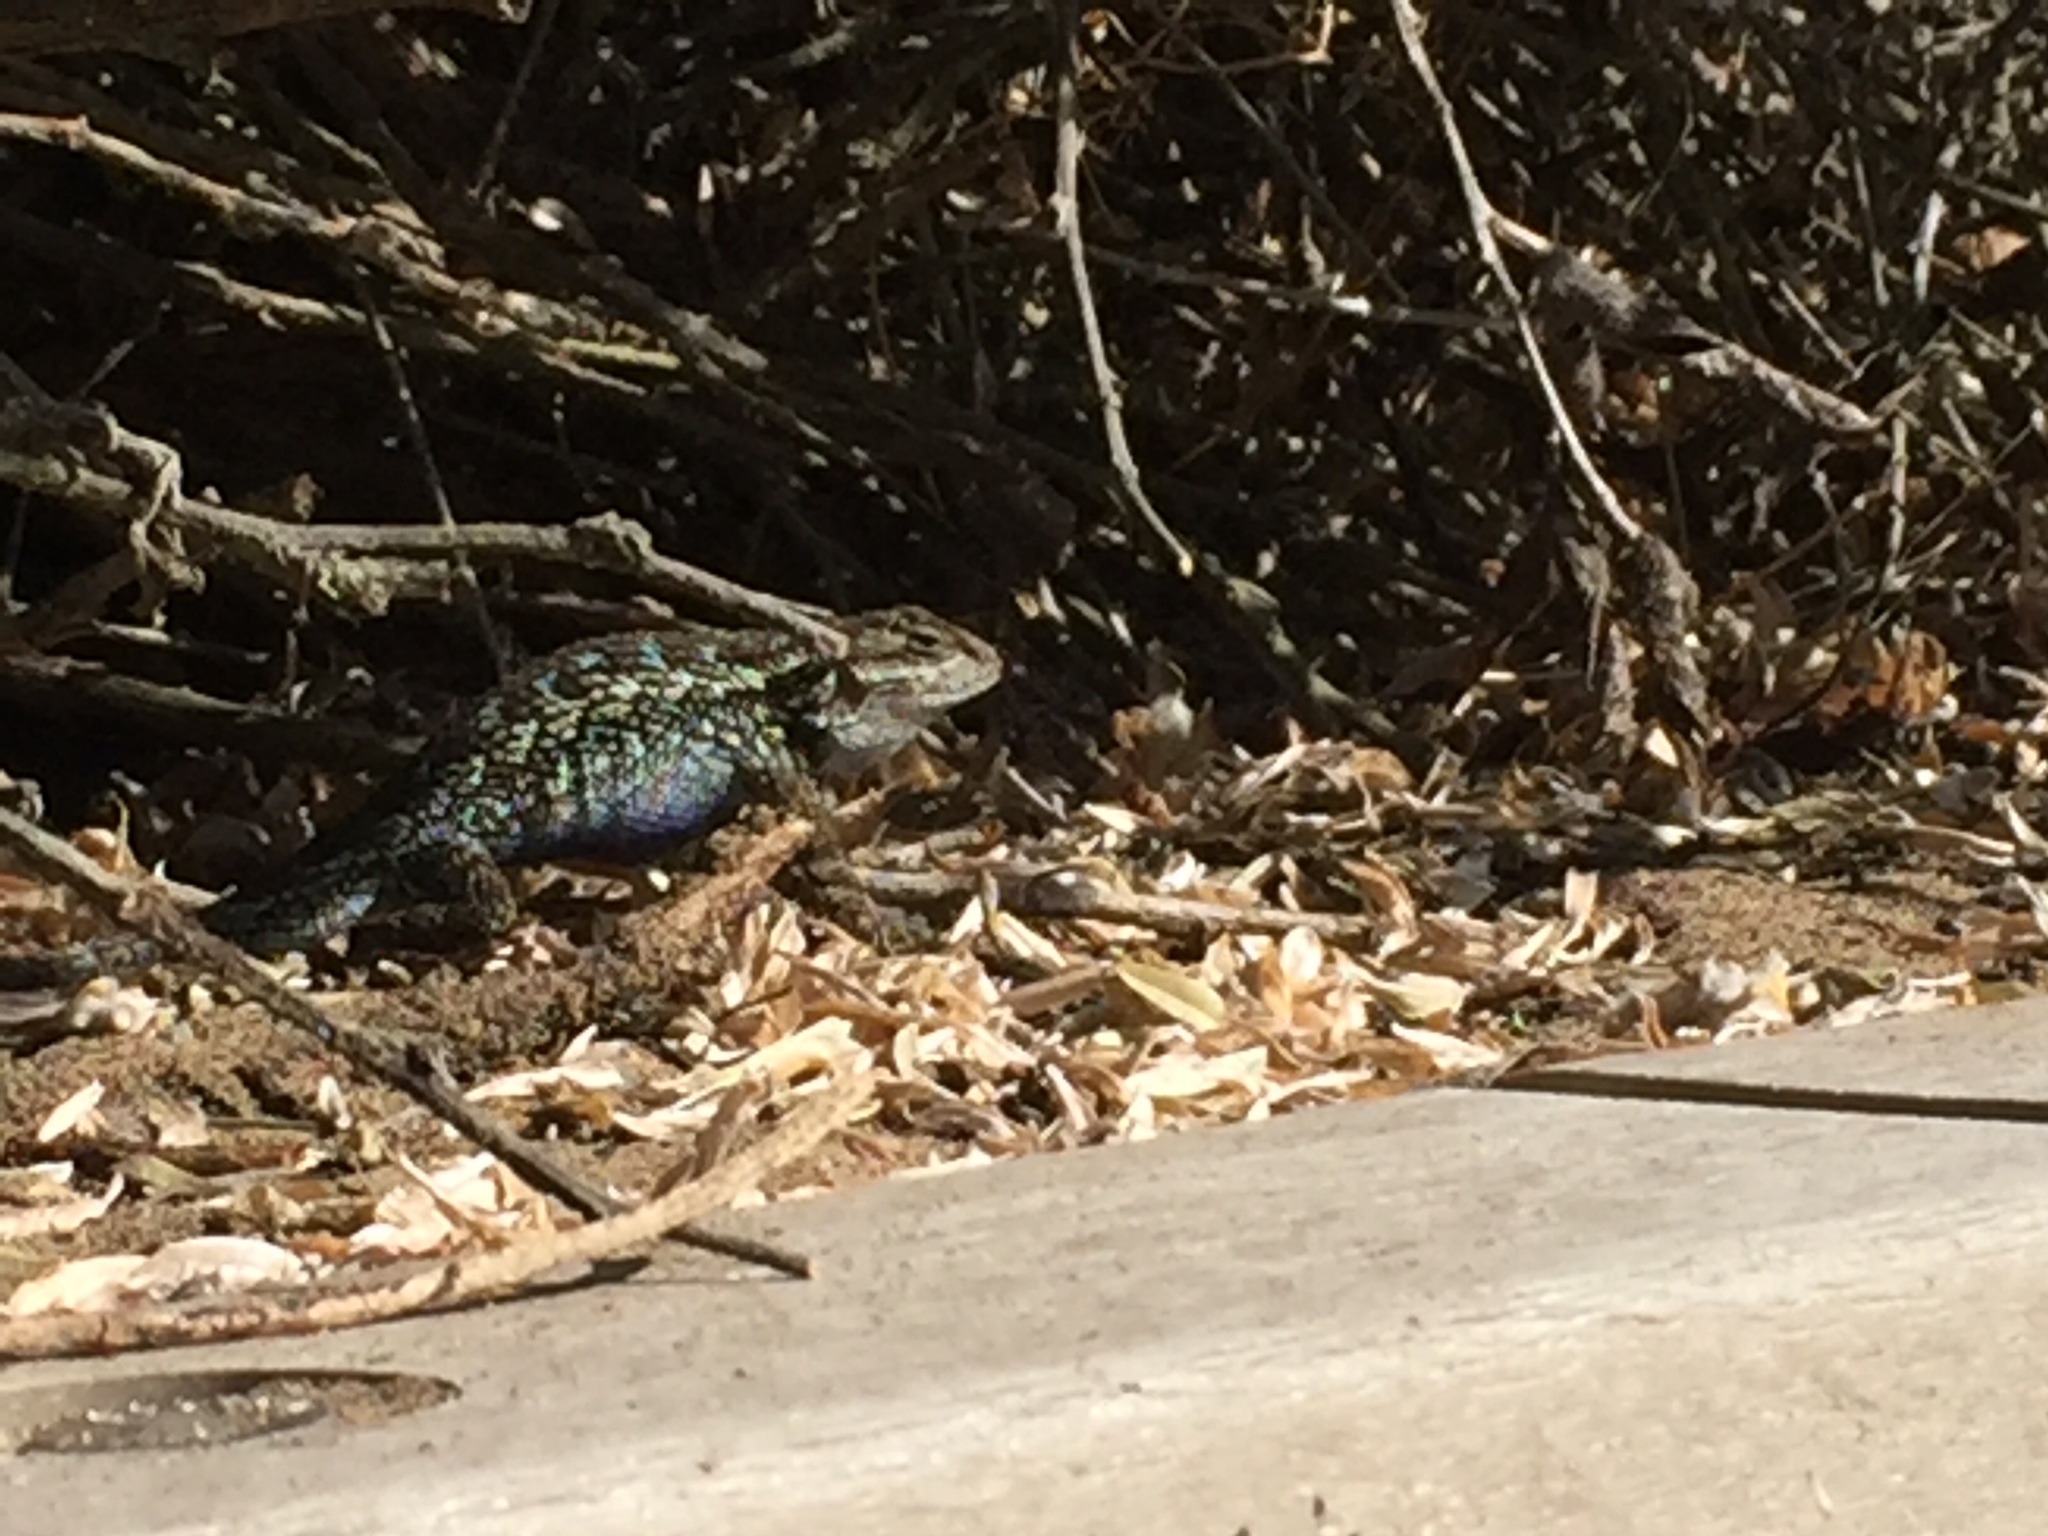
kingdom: Animalia
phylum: Chordata
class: Squamata
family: Phrynosomatidae
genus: Sceloporus
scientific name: Sceloporus occidentalis
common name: Western fence lizard
